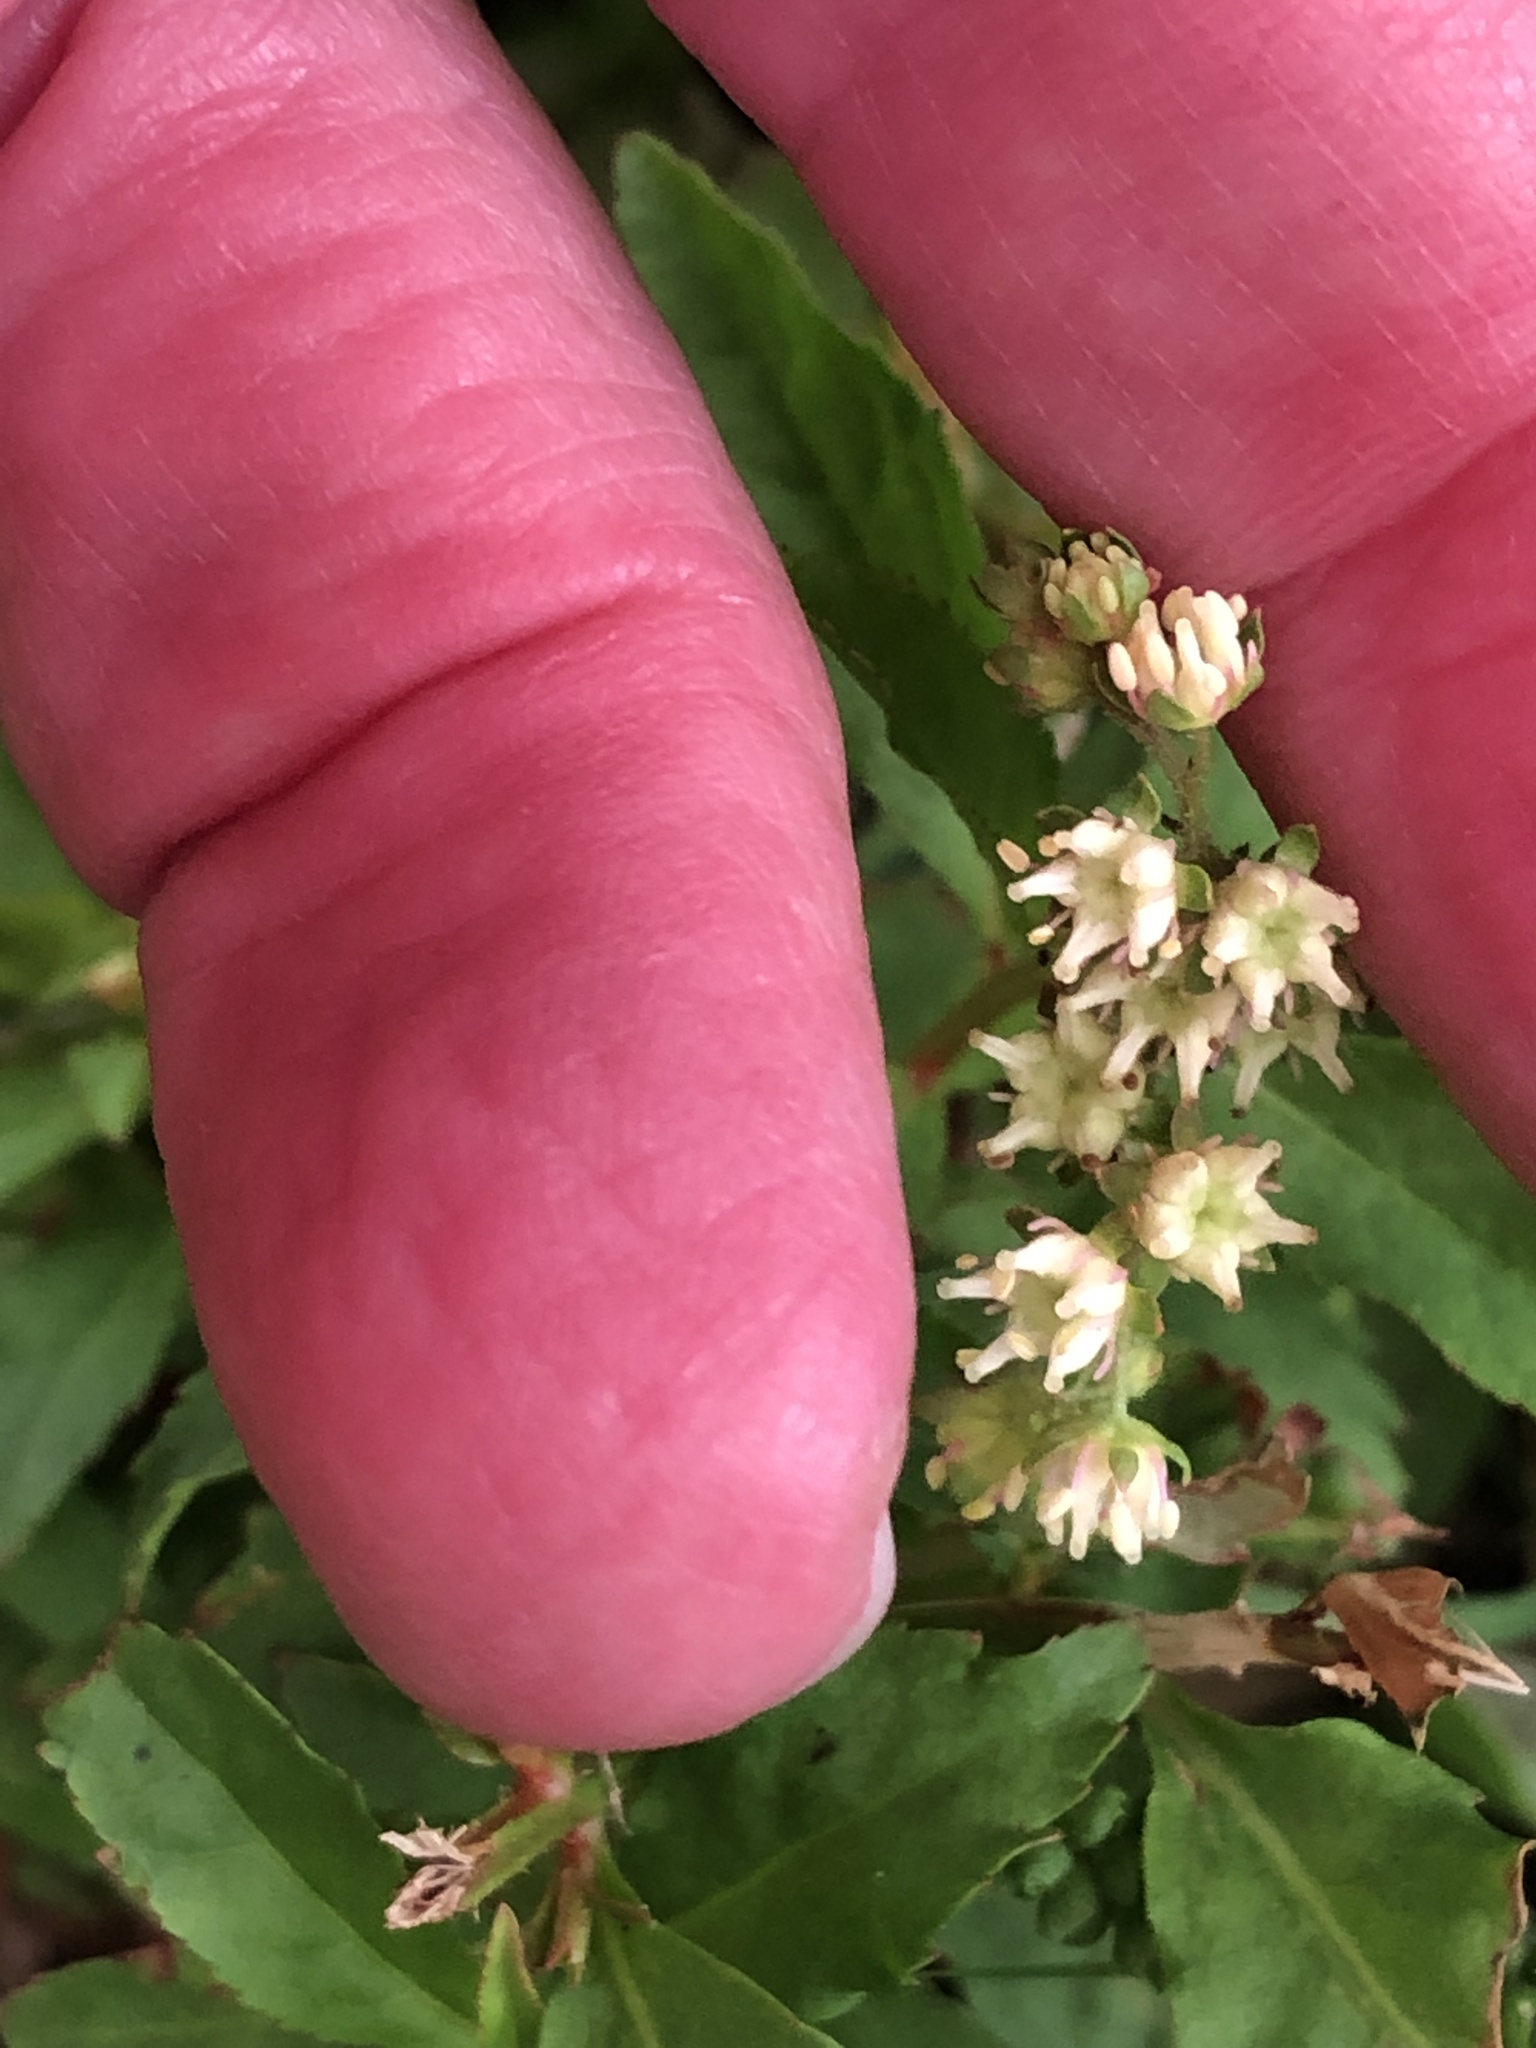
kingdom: Plantae
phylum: Tracheophyta
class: Magnoliopsida
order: Saxifragales
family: Penthoraceae
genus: Penthorum
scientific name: Penthorum sedoides
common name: Ditch stonecrop
